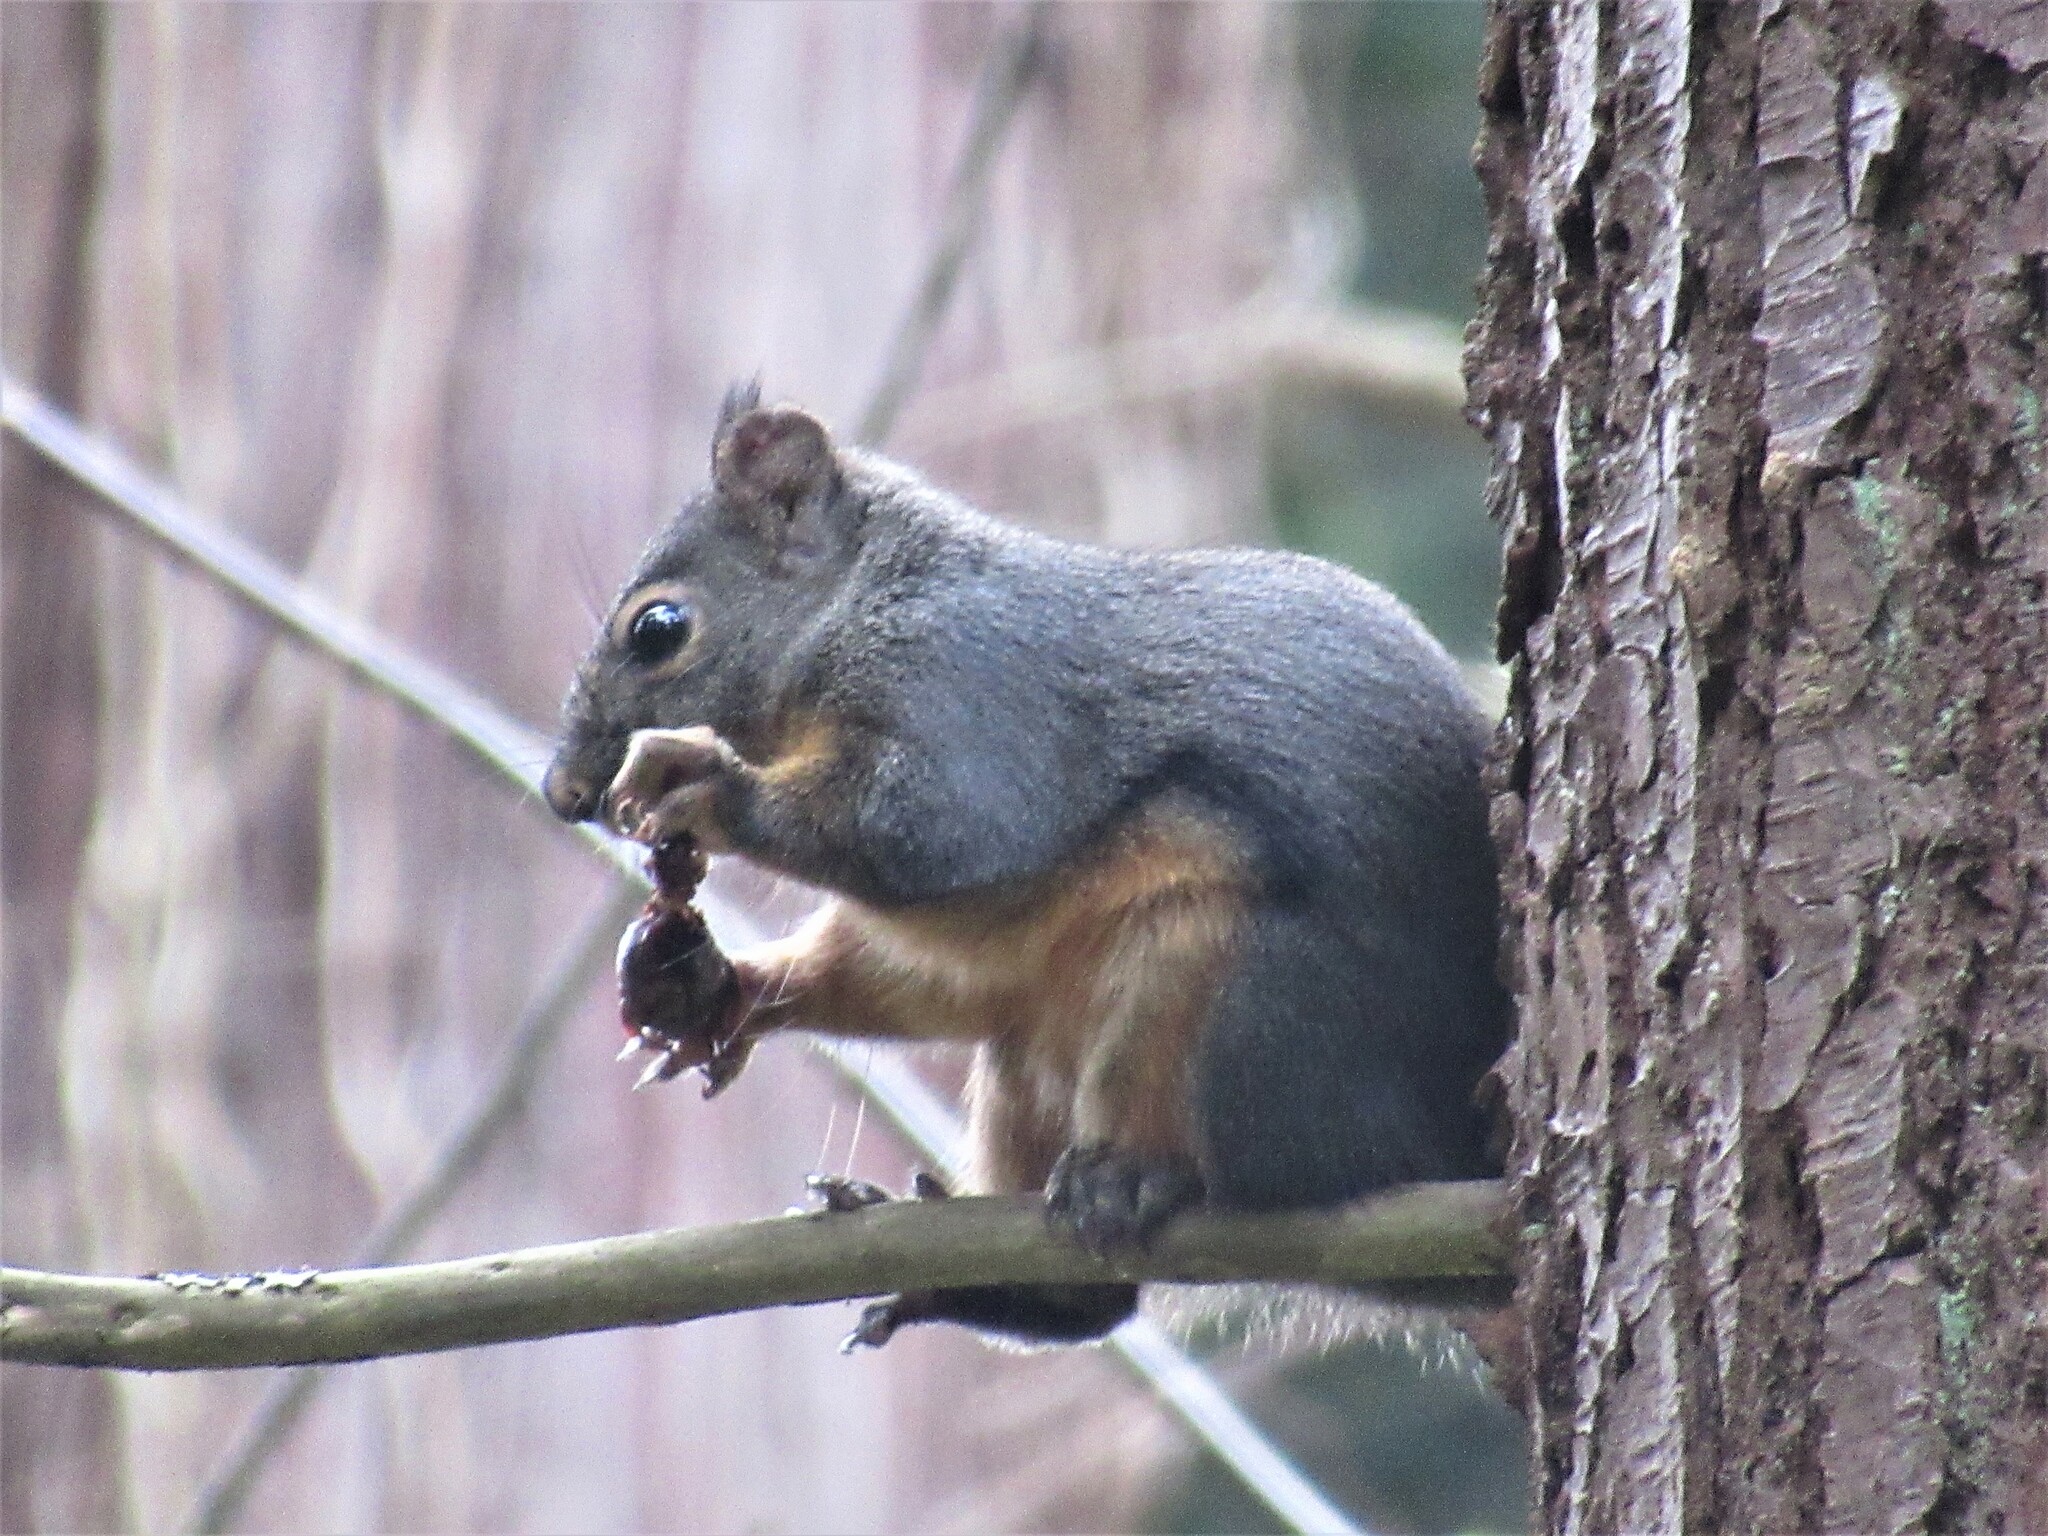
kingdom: Animalia
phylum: Chordata
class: Mammalia
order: Rodentia
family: Sciuridae
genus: Tamiasciurus
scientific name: Tamiasciurus douglasii
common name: Douglas's squirrel
